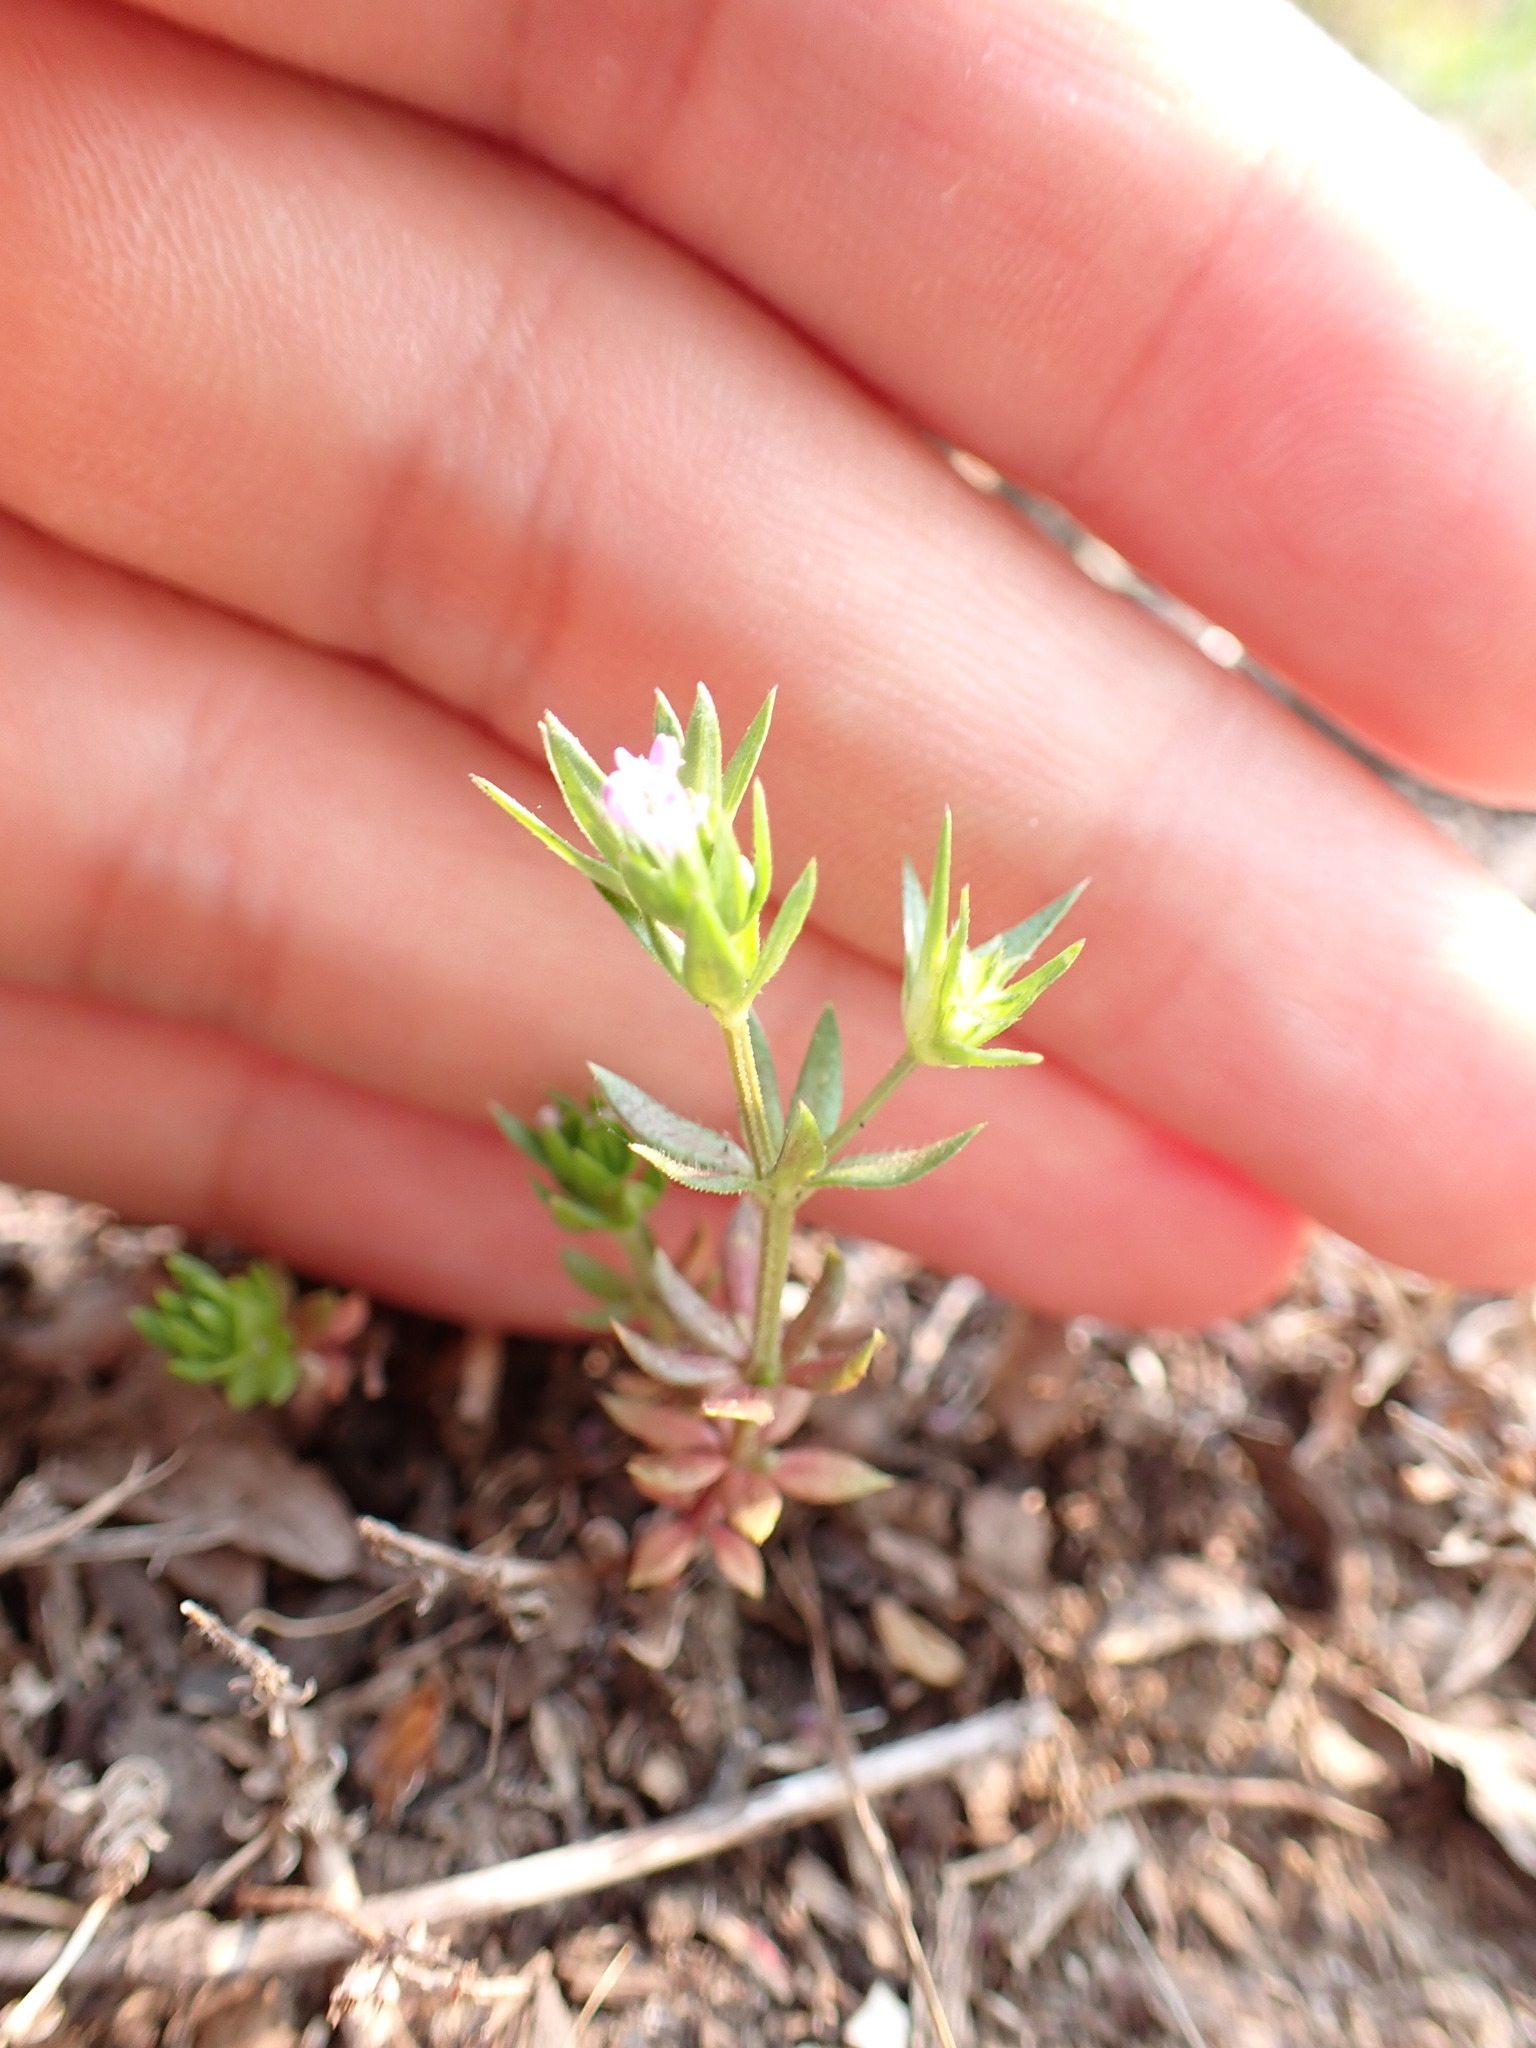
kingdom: Plantae
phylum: Tracheophyta
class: Magnoliopsida
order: Gentianales
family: Rubiaceae
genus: Sherardia
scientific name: Sherardia arvensis
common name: Field madder
